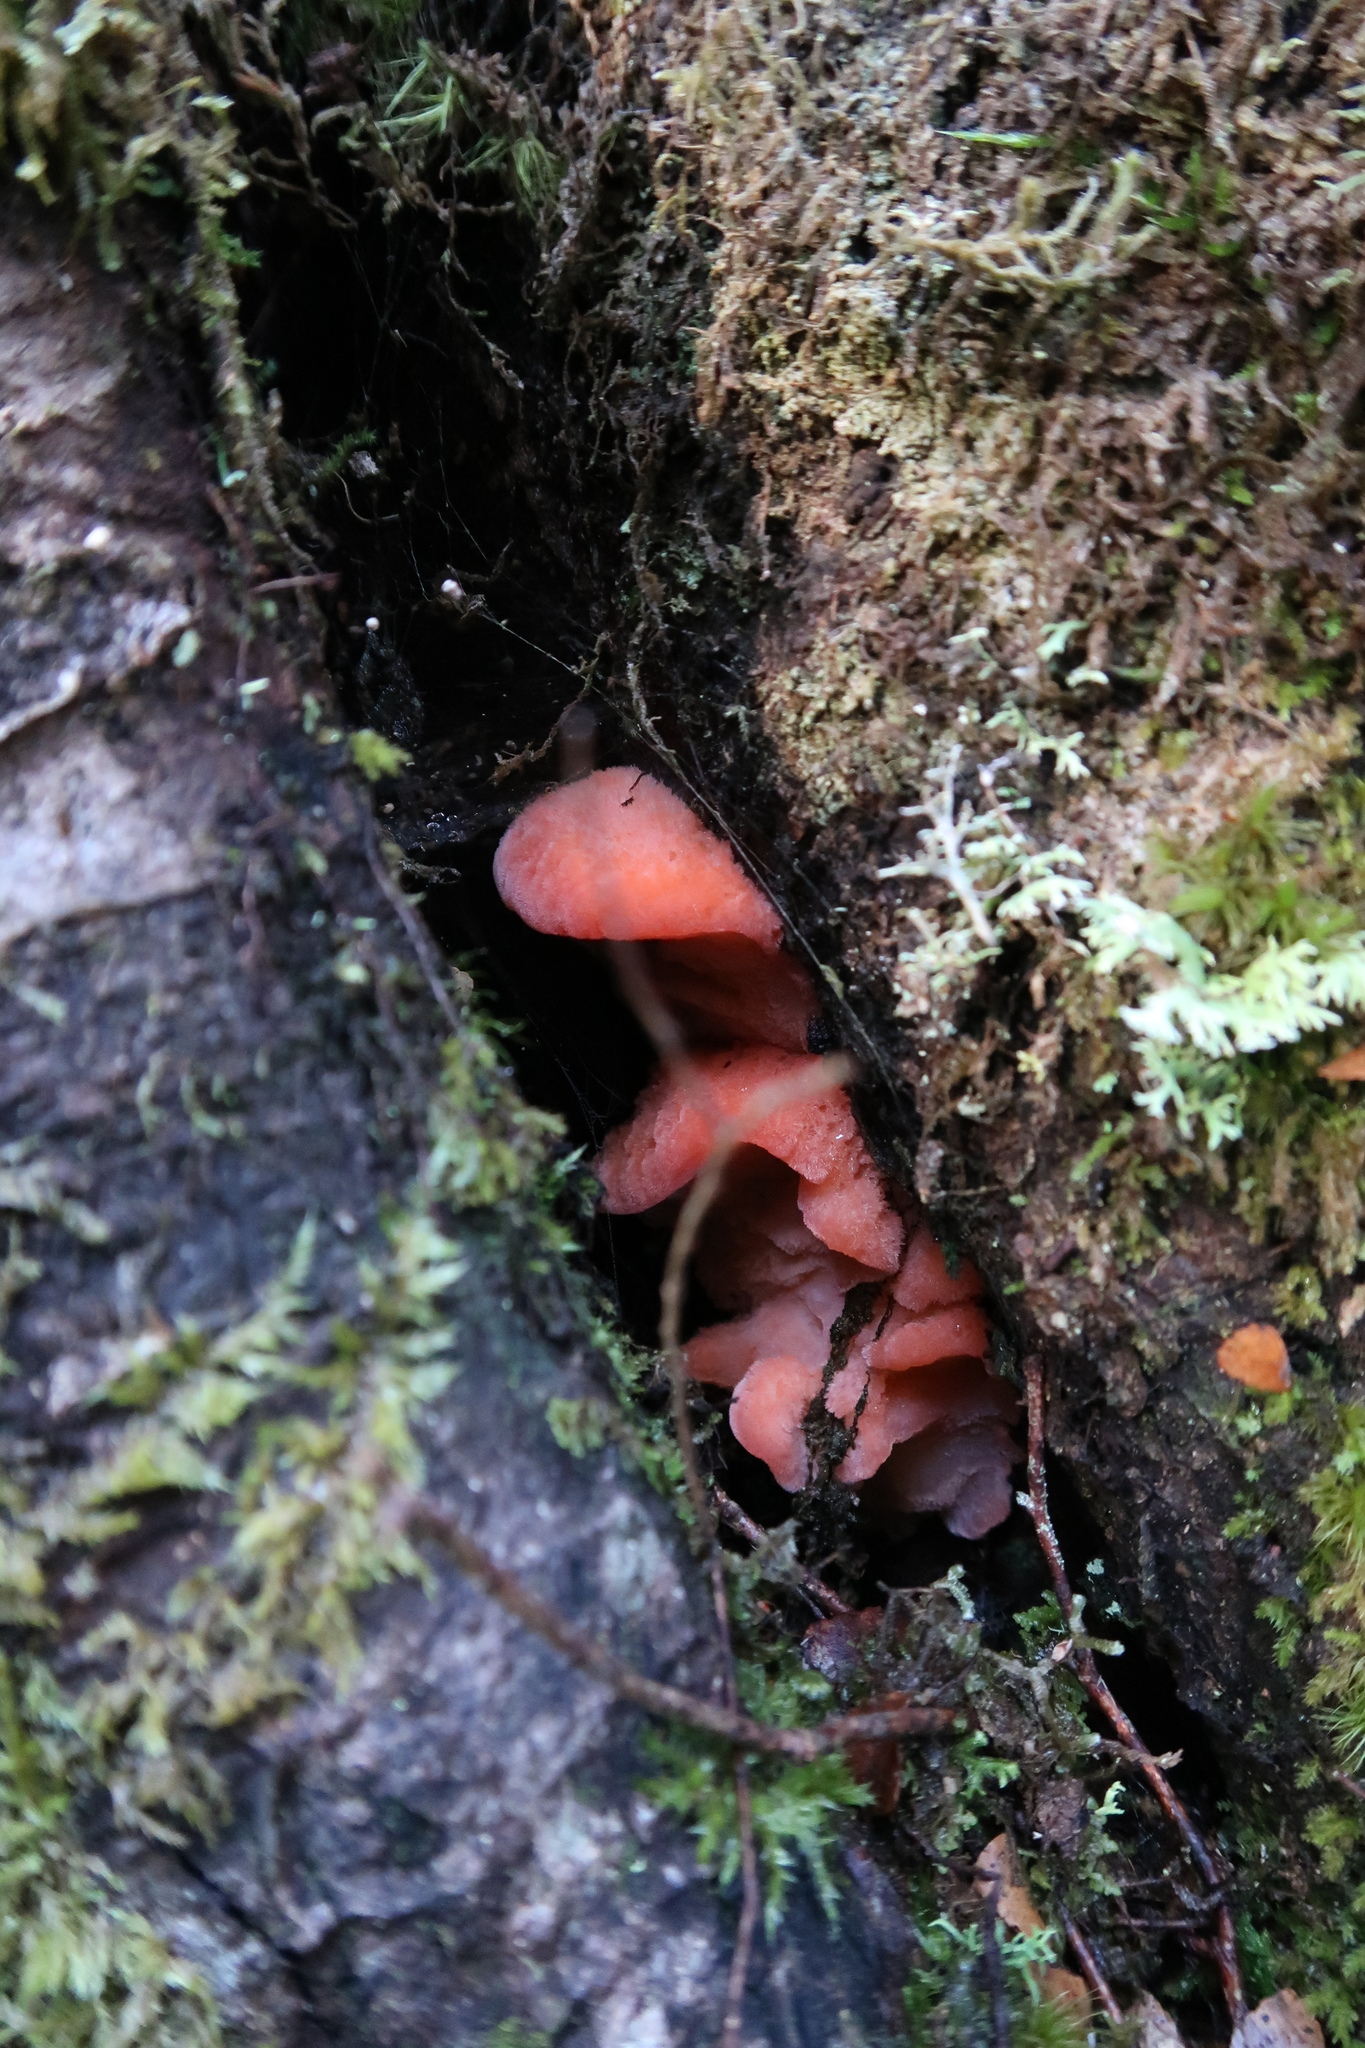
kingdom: Fungi
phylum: Basidiomycota
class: Agaricomycetes
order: Polyporales
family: Incrustoporiaceae
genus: Tyromyces
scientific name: Tyromyces pulcherrimus
